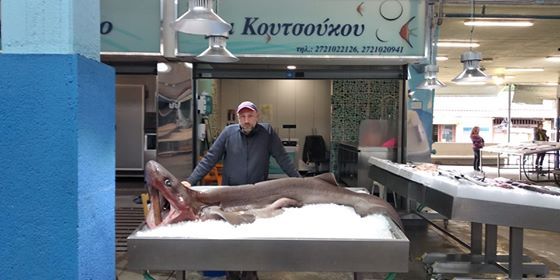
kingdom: Animalia
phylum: Chordata
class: Elasmobranchii
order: Hexanchiformes
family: Hexanchidae
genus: Hexanchus
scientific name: Hexanchus griseus
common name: Bluntnose sixgill shark
